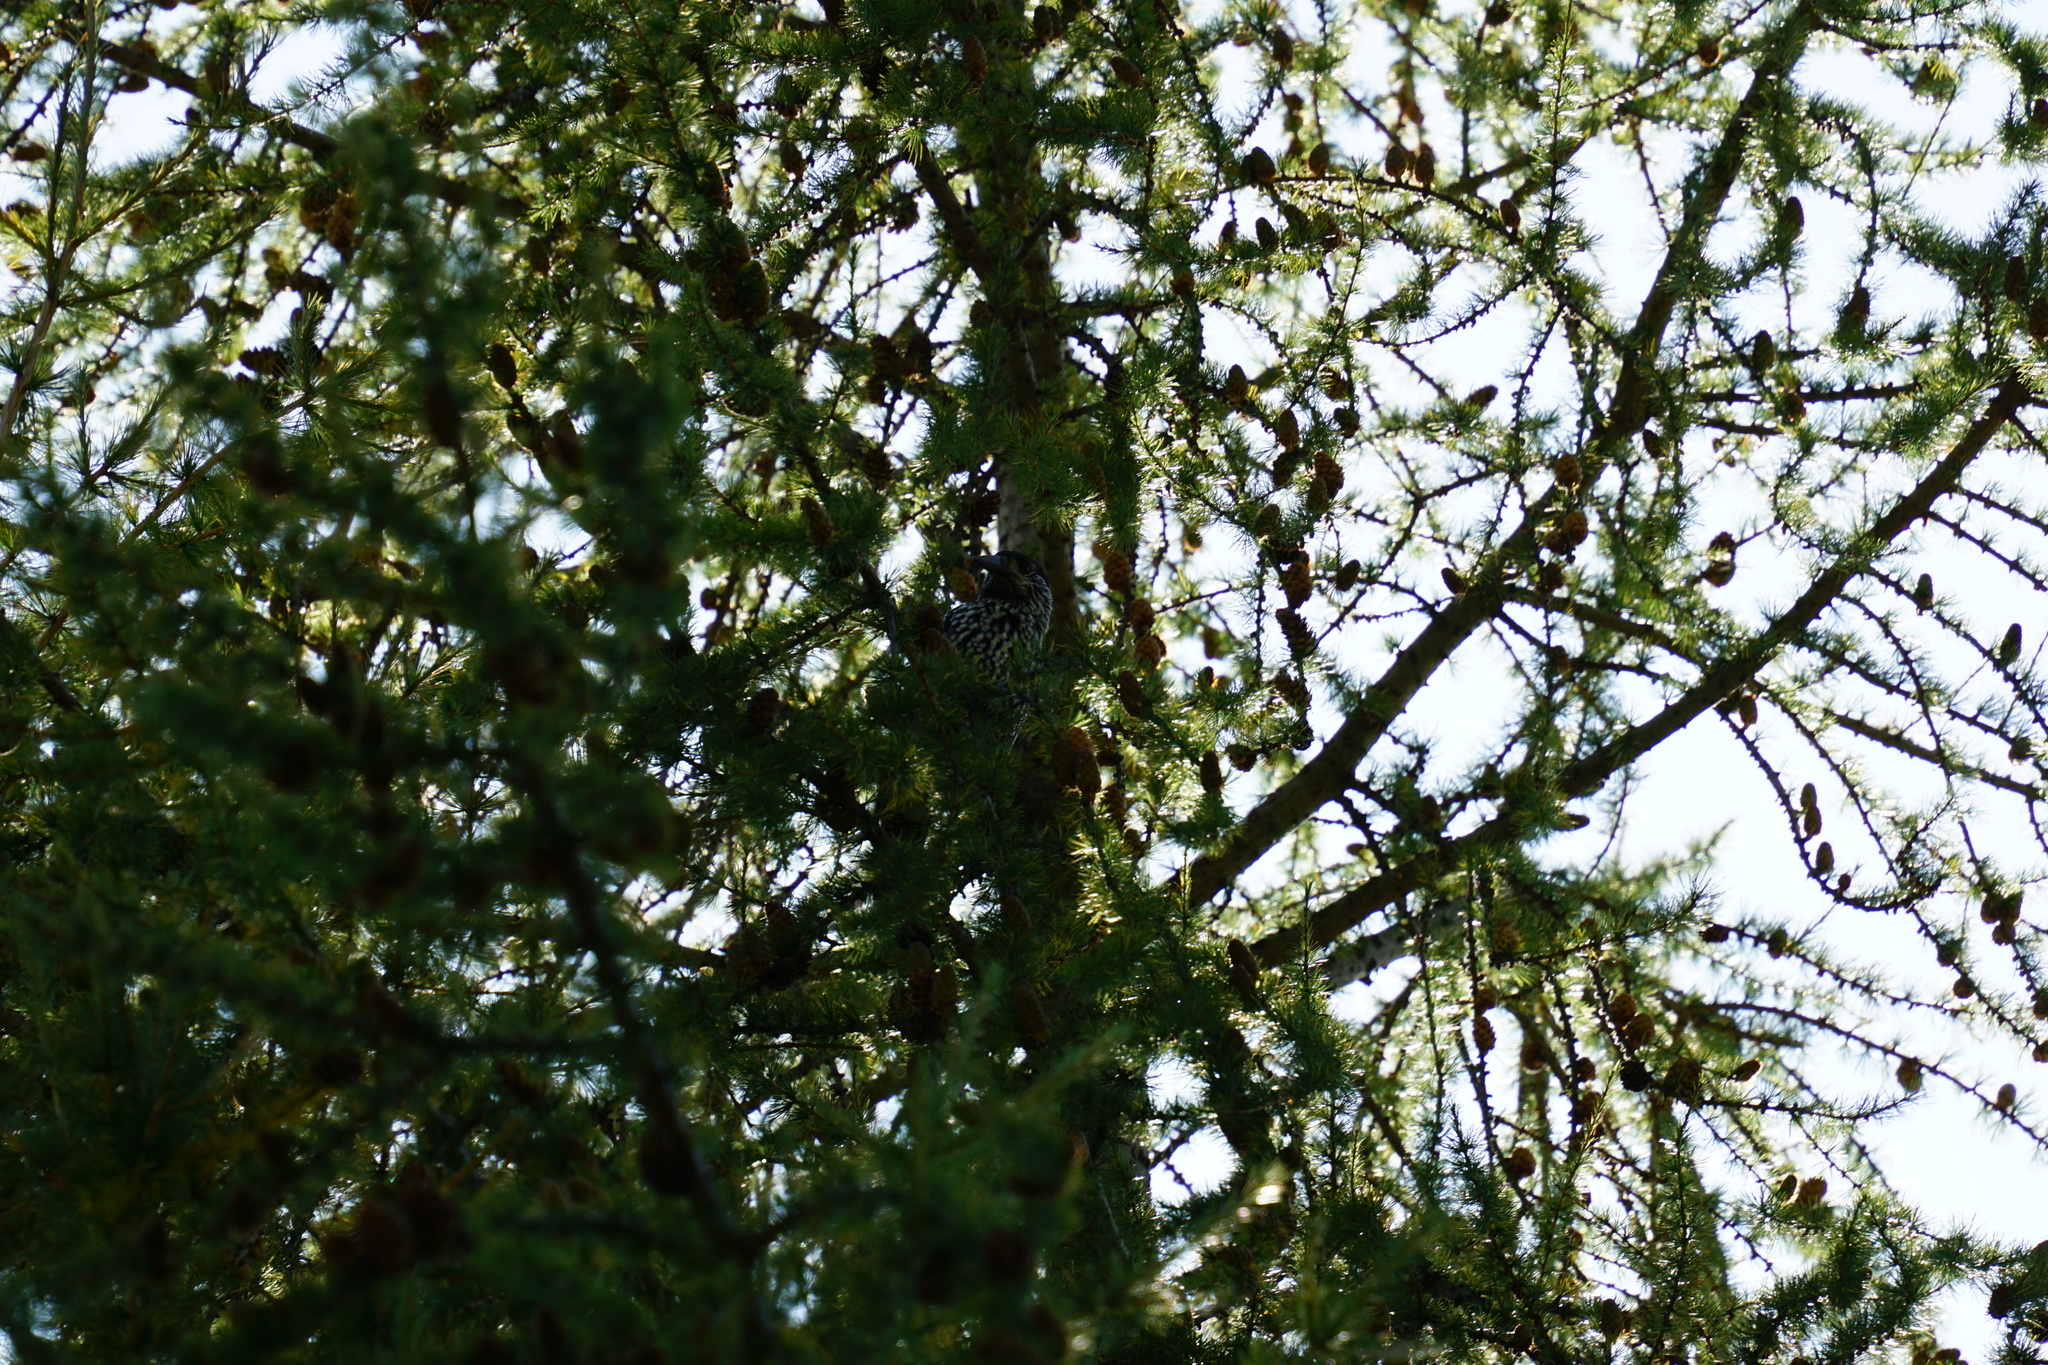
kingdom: Animalia
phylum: Chordata
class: Aves
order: Passeriformes
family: Corvidae
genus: Nucifraga
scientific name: Nucifraga caryocatactes
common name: Spotted nutcracker
